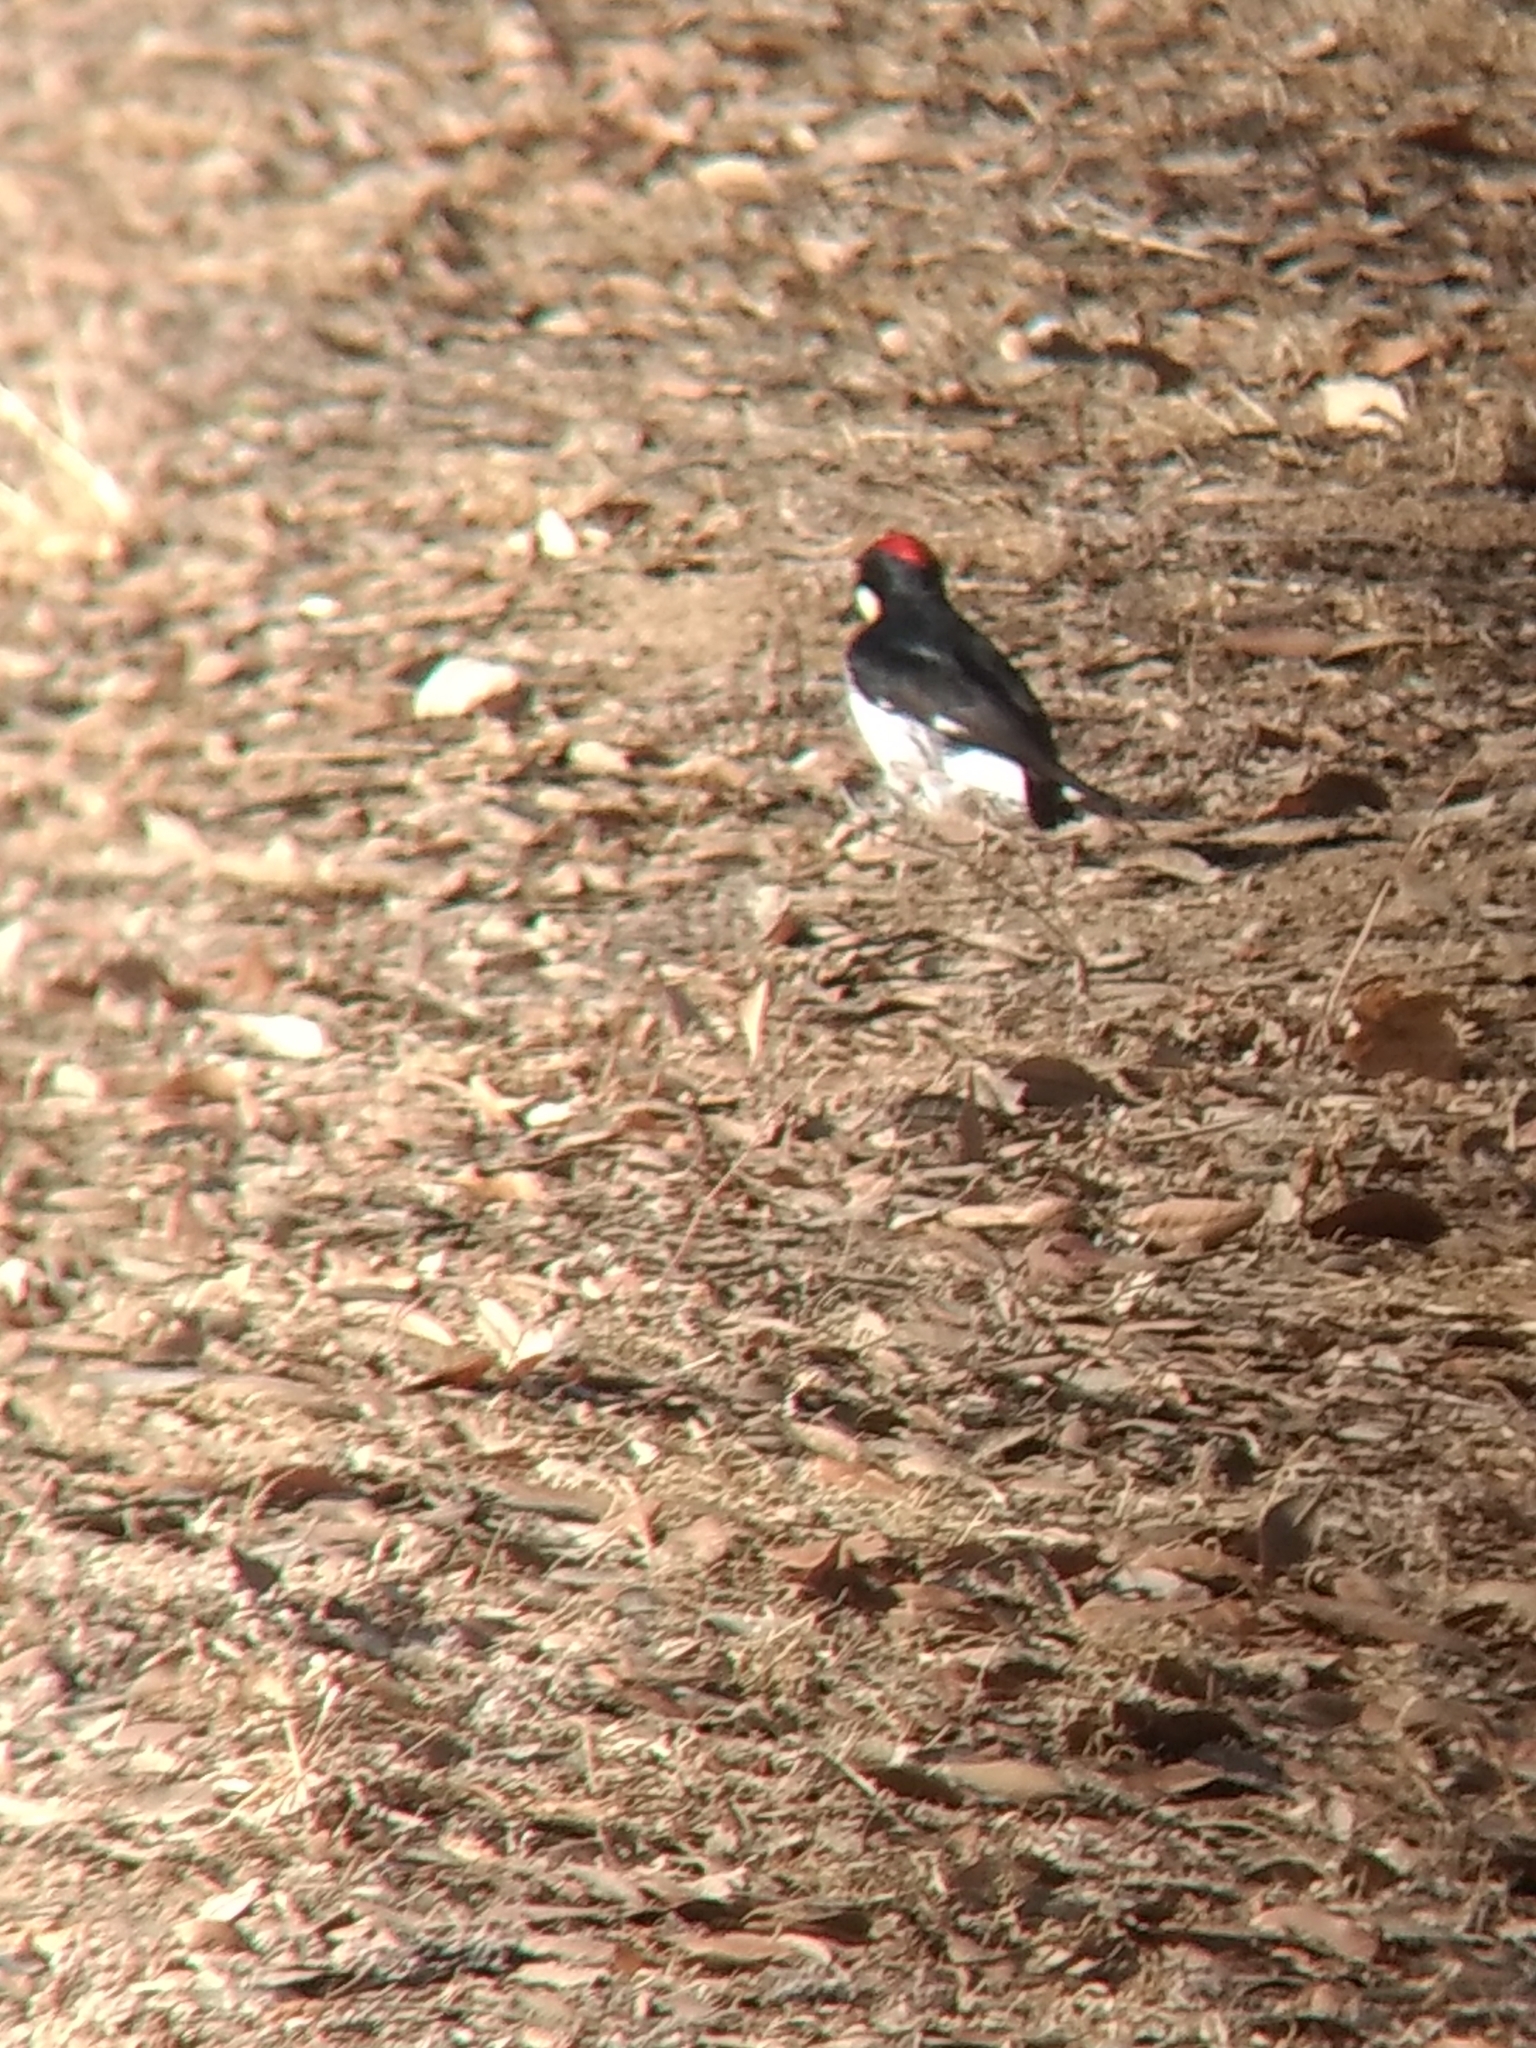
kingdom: Animalia
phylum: Chordata
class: Aves
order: Piciformes
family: Picidae
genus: Melanerpes
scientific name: Melanerpes formicivorus
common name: Acorn woodpecker
